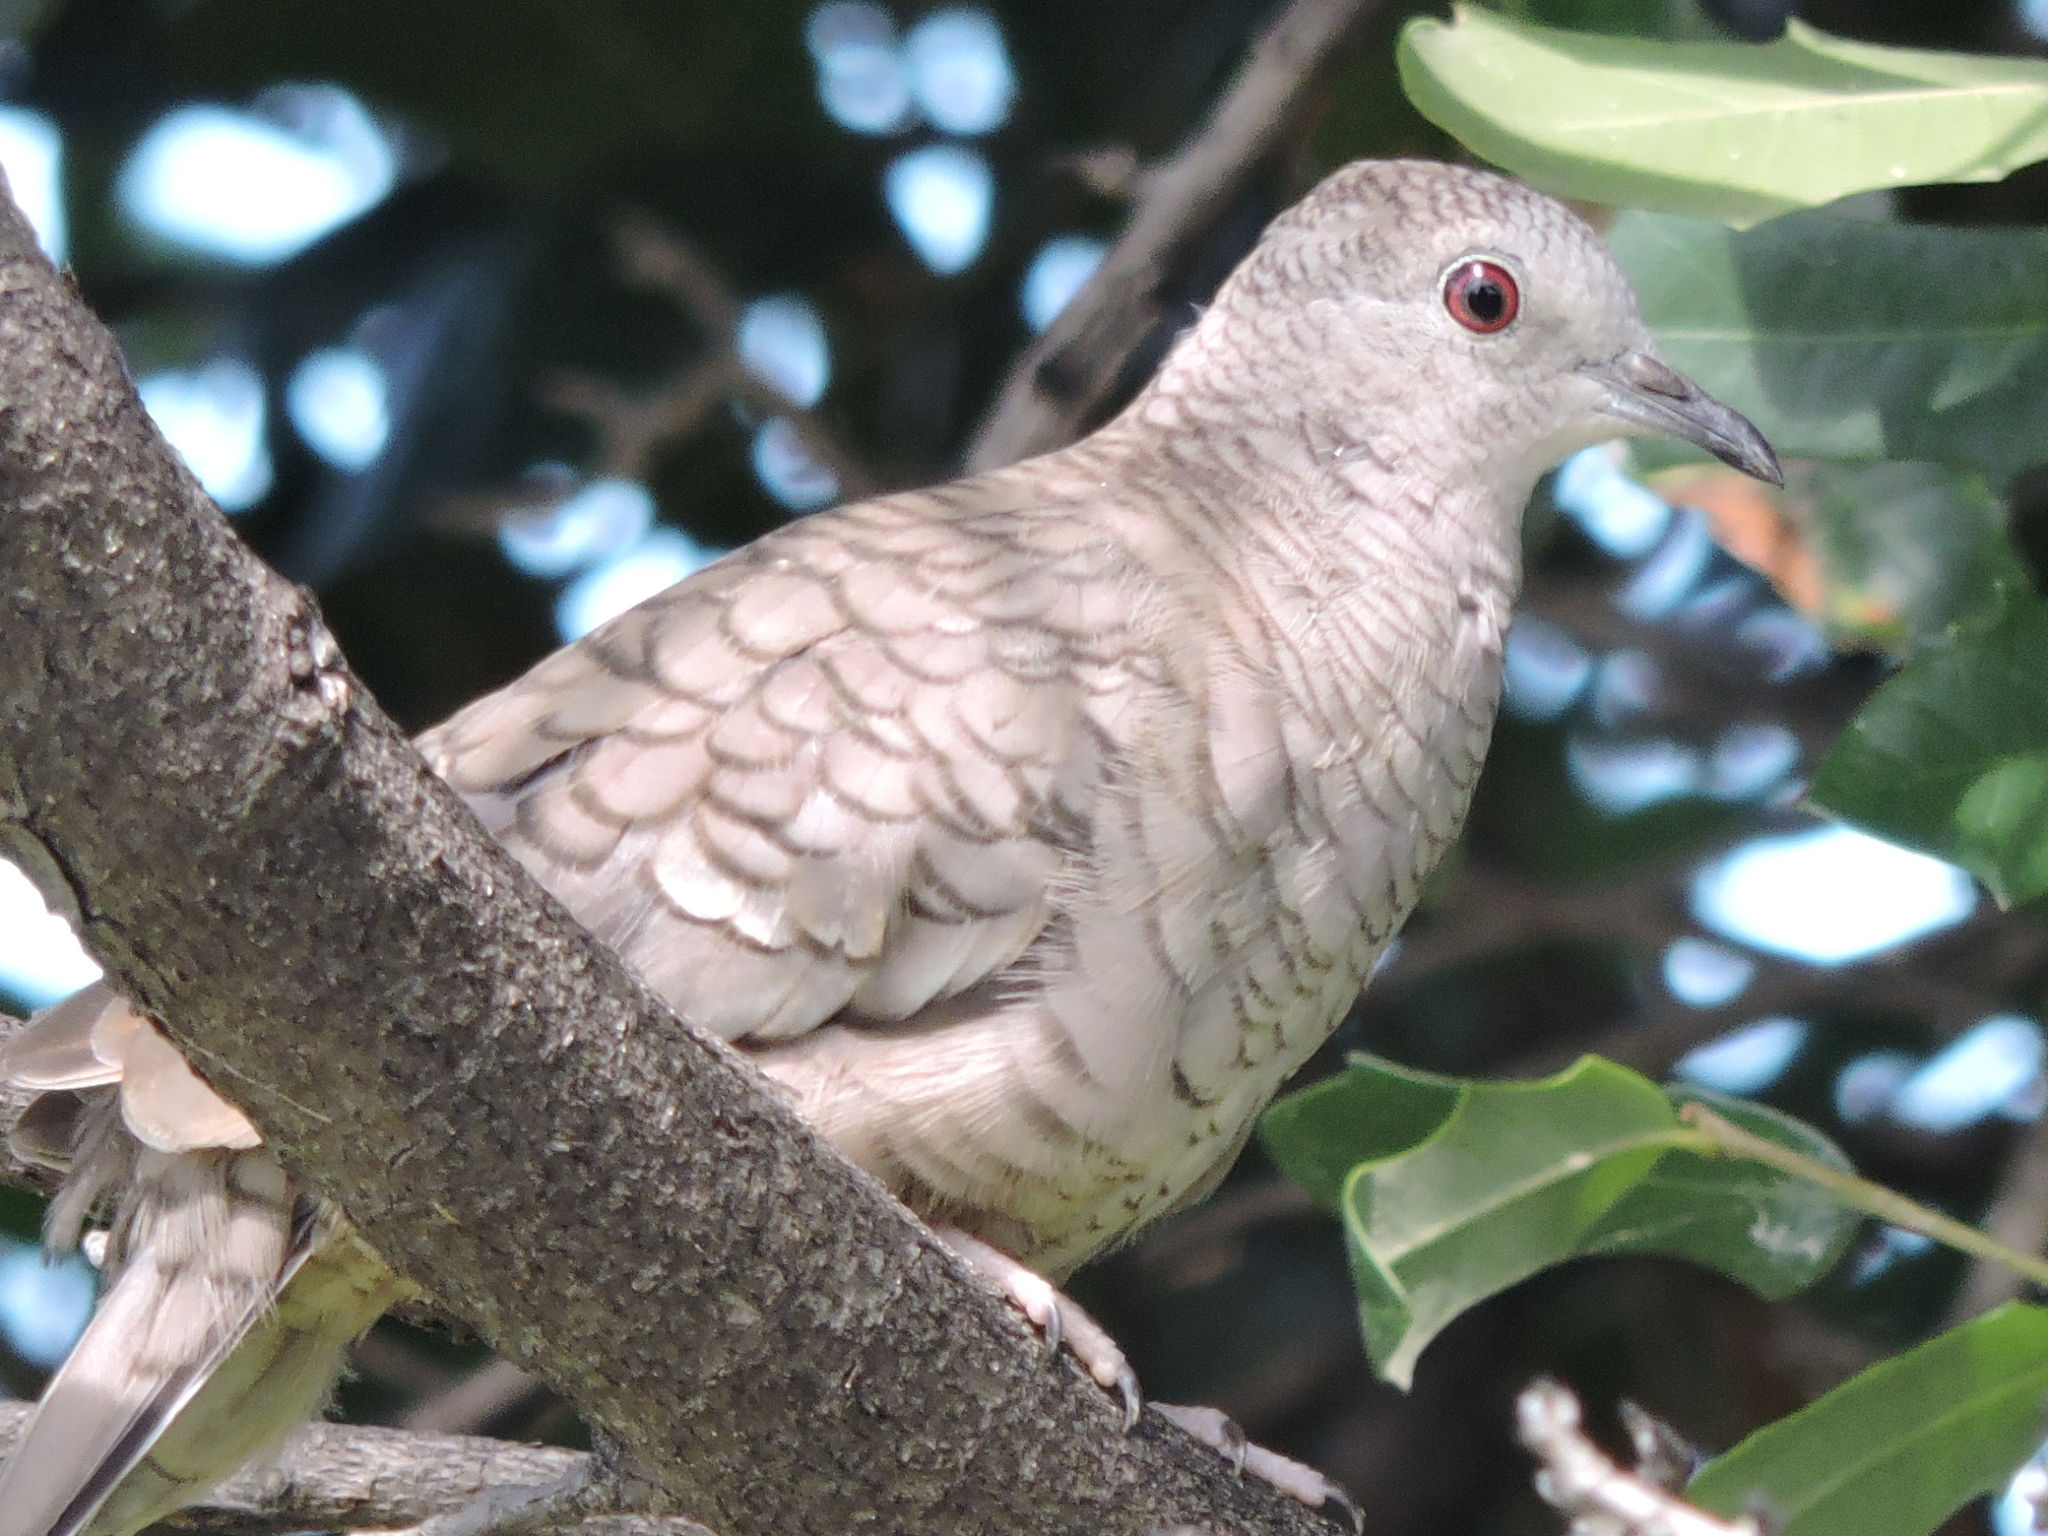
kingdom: Animalia
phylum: Chordata
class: Aves
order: Columbiformes
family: Columbidae
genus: Columbina
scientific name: Columbina inca
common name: Inca dove
